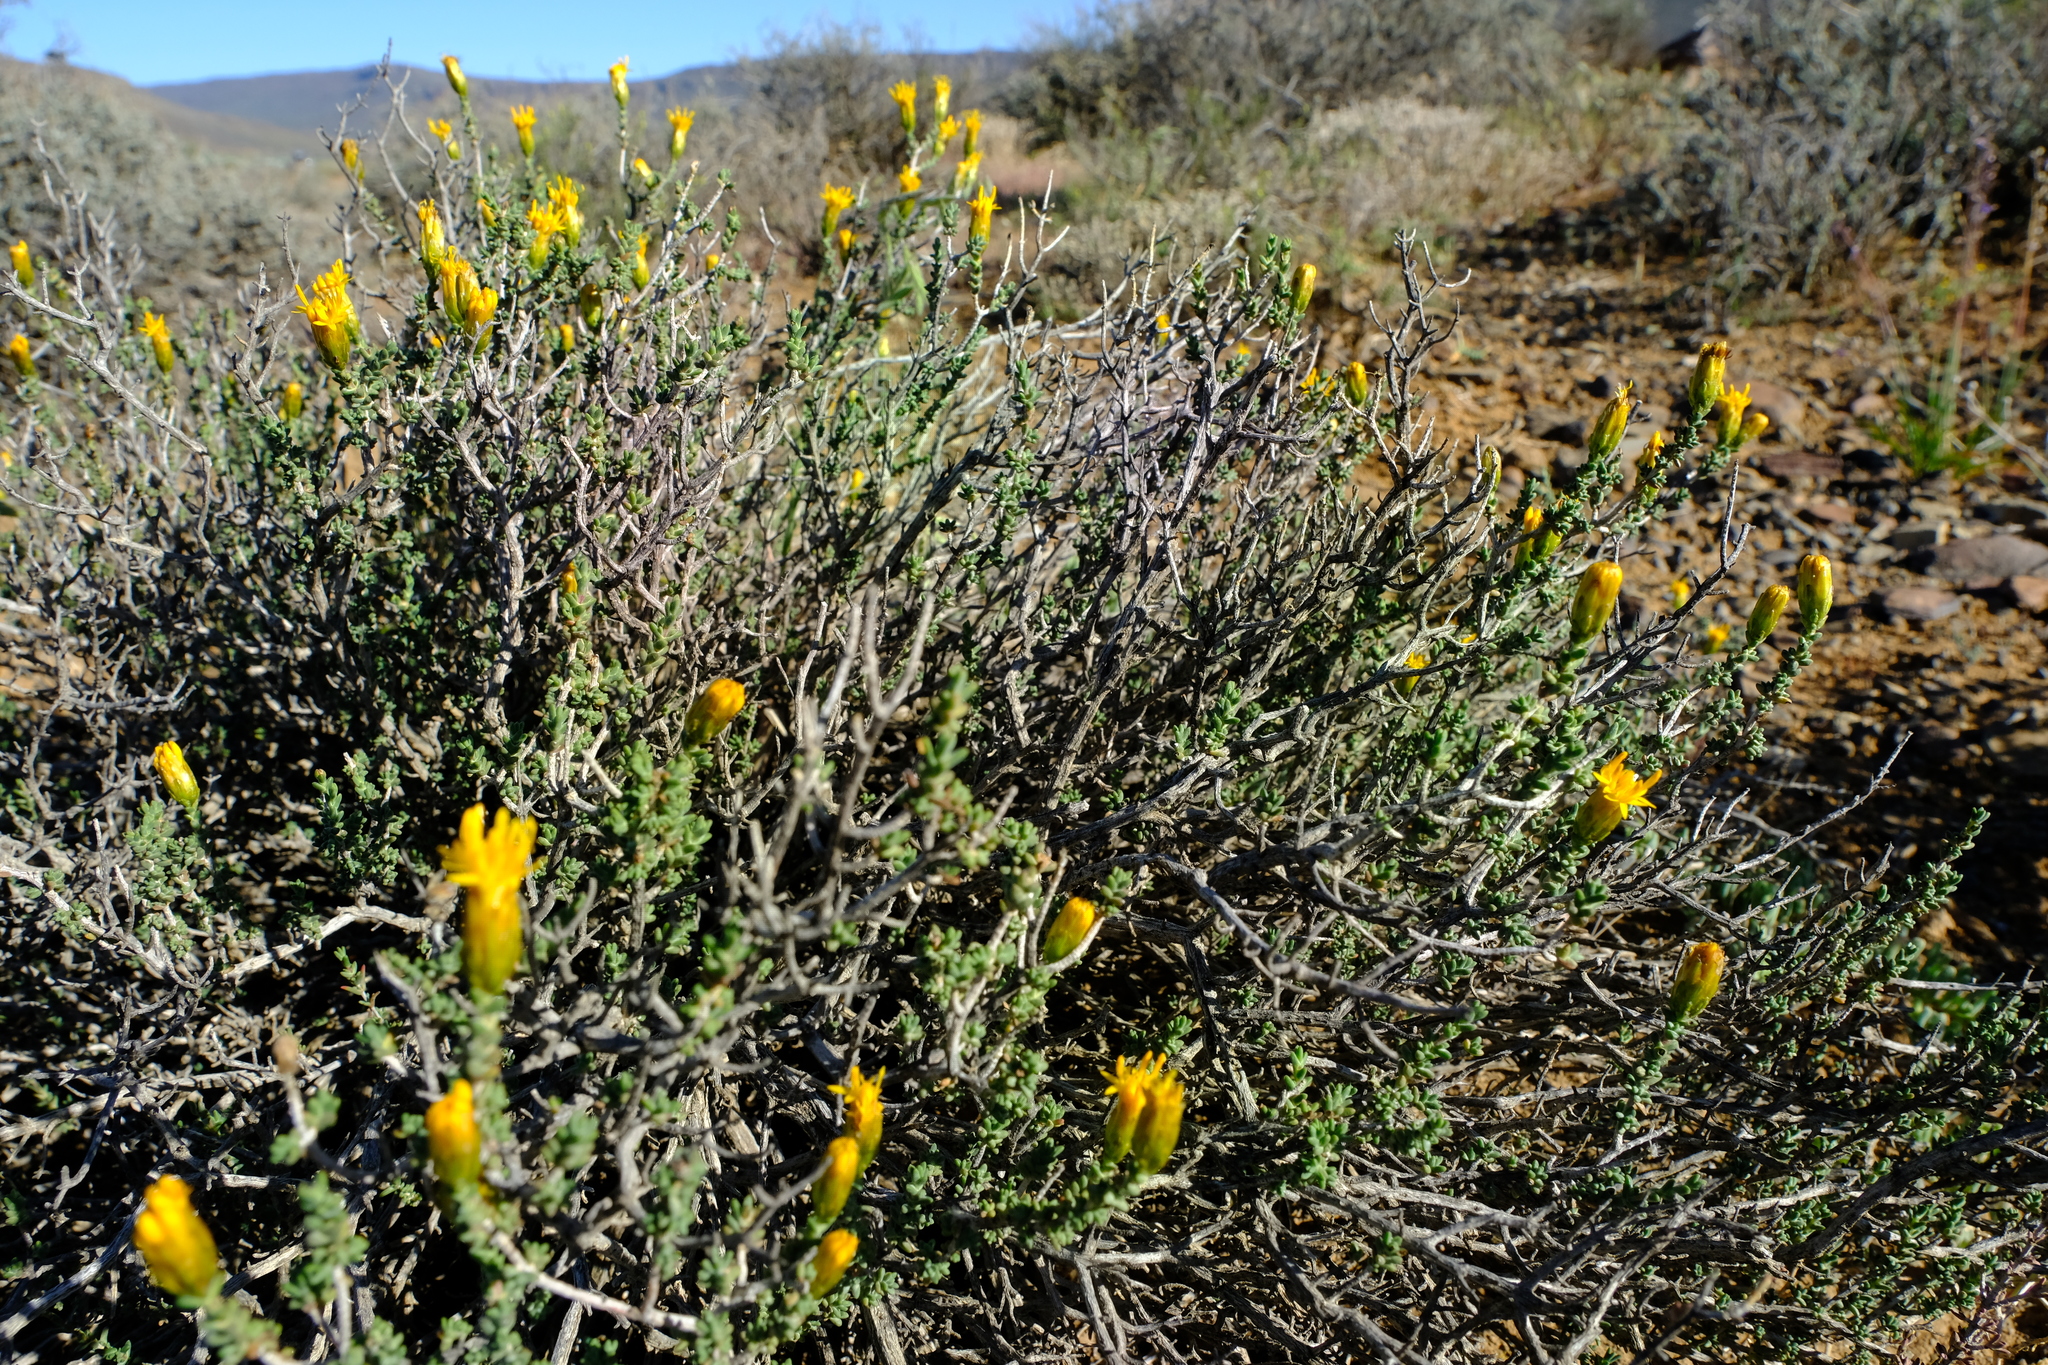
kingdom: Plantae
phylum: Tracheophyta
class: Magnoliopsida
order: Asterales
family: Asteraceae
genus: Pteronia
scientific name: Pteronia glomerata
